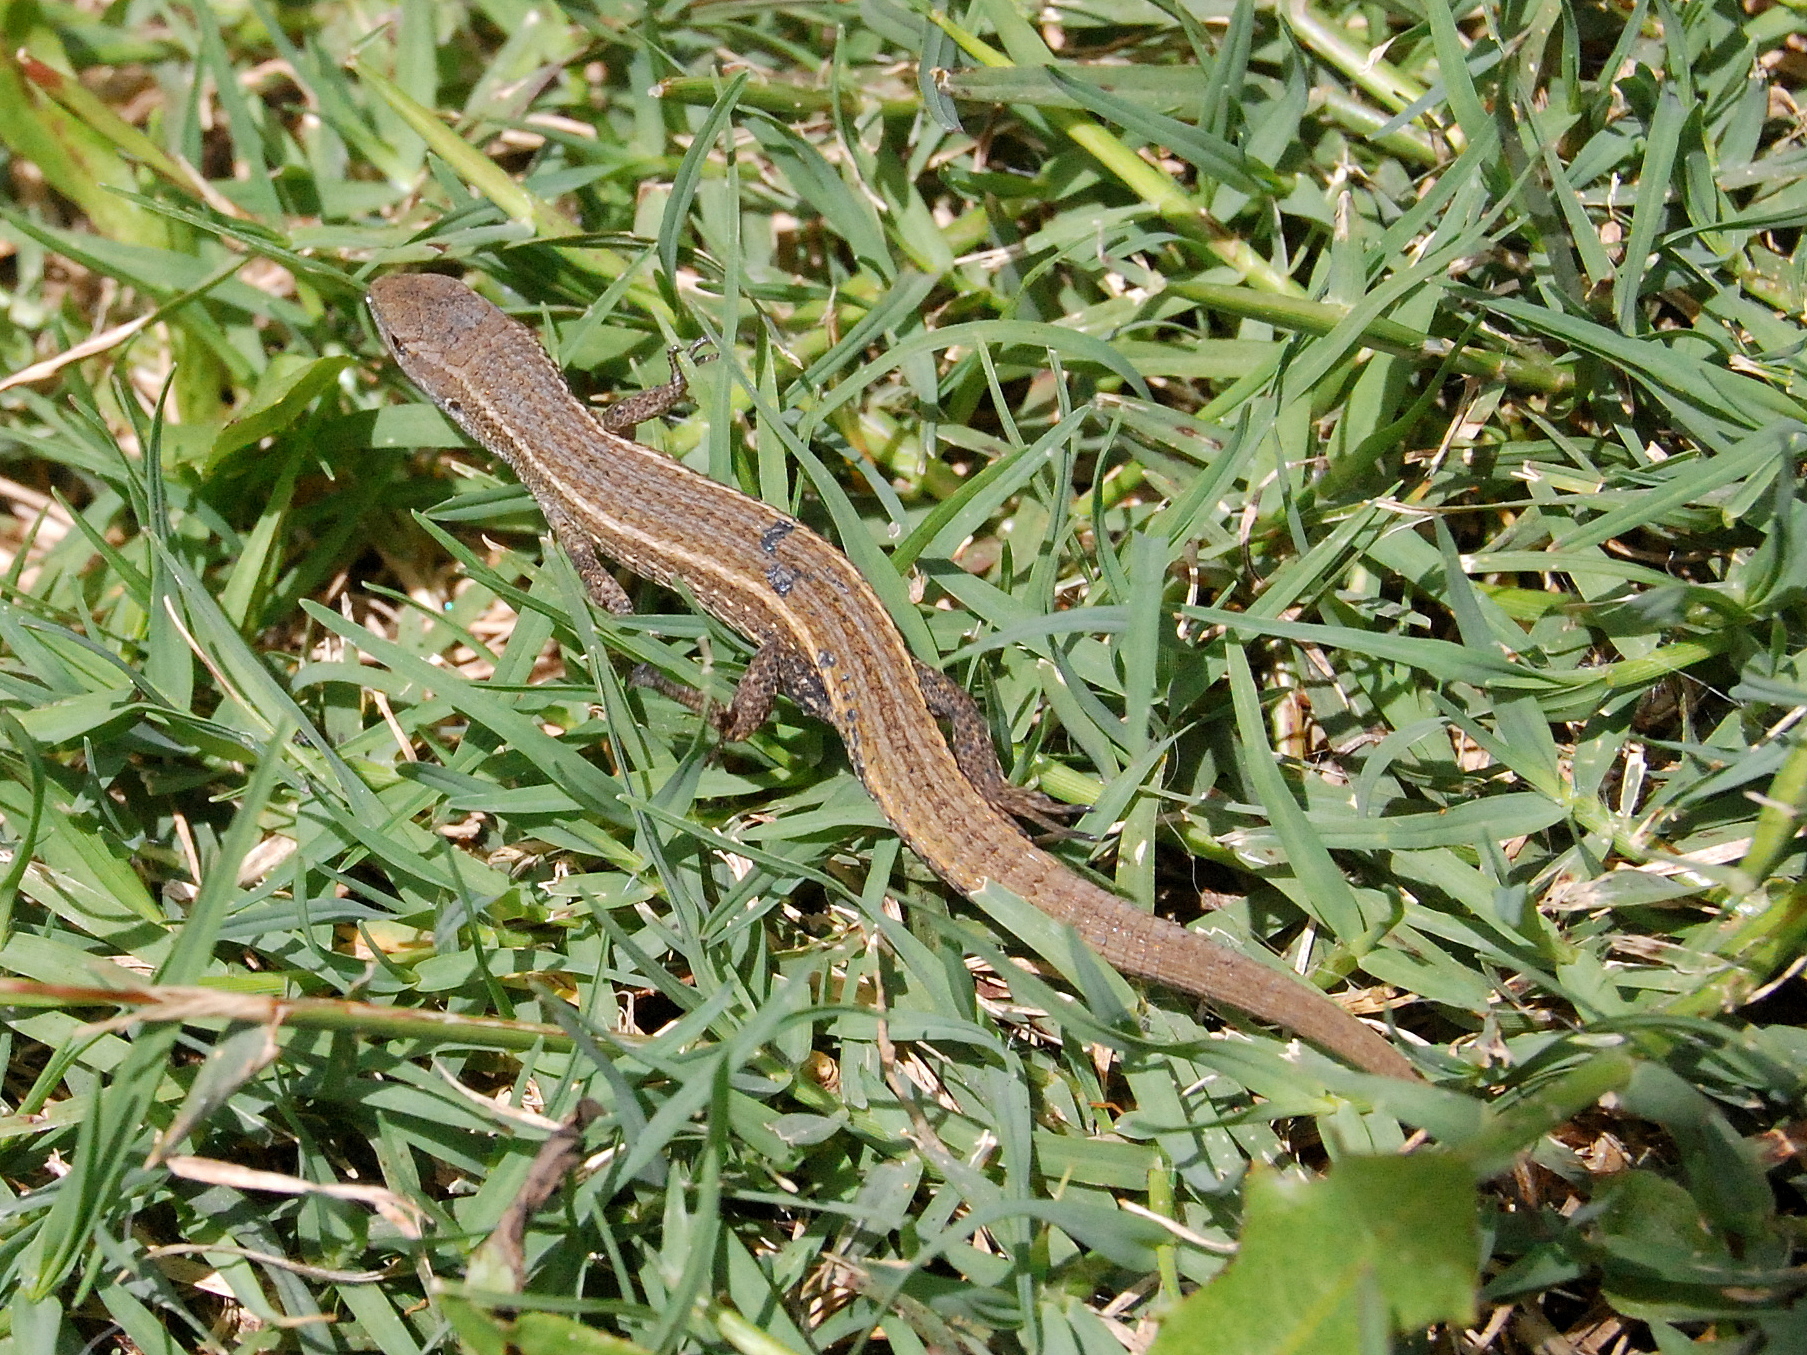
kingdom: Animalia
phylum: Chordata
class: Squamata
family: Gymnophthalmidae
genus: Cercosaura
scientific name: Cercosaura schreibersii
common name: Schreibers' many-fingered teiid
